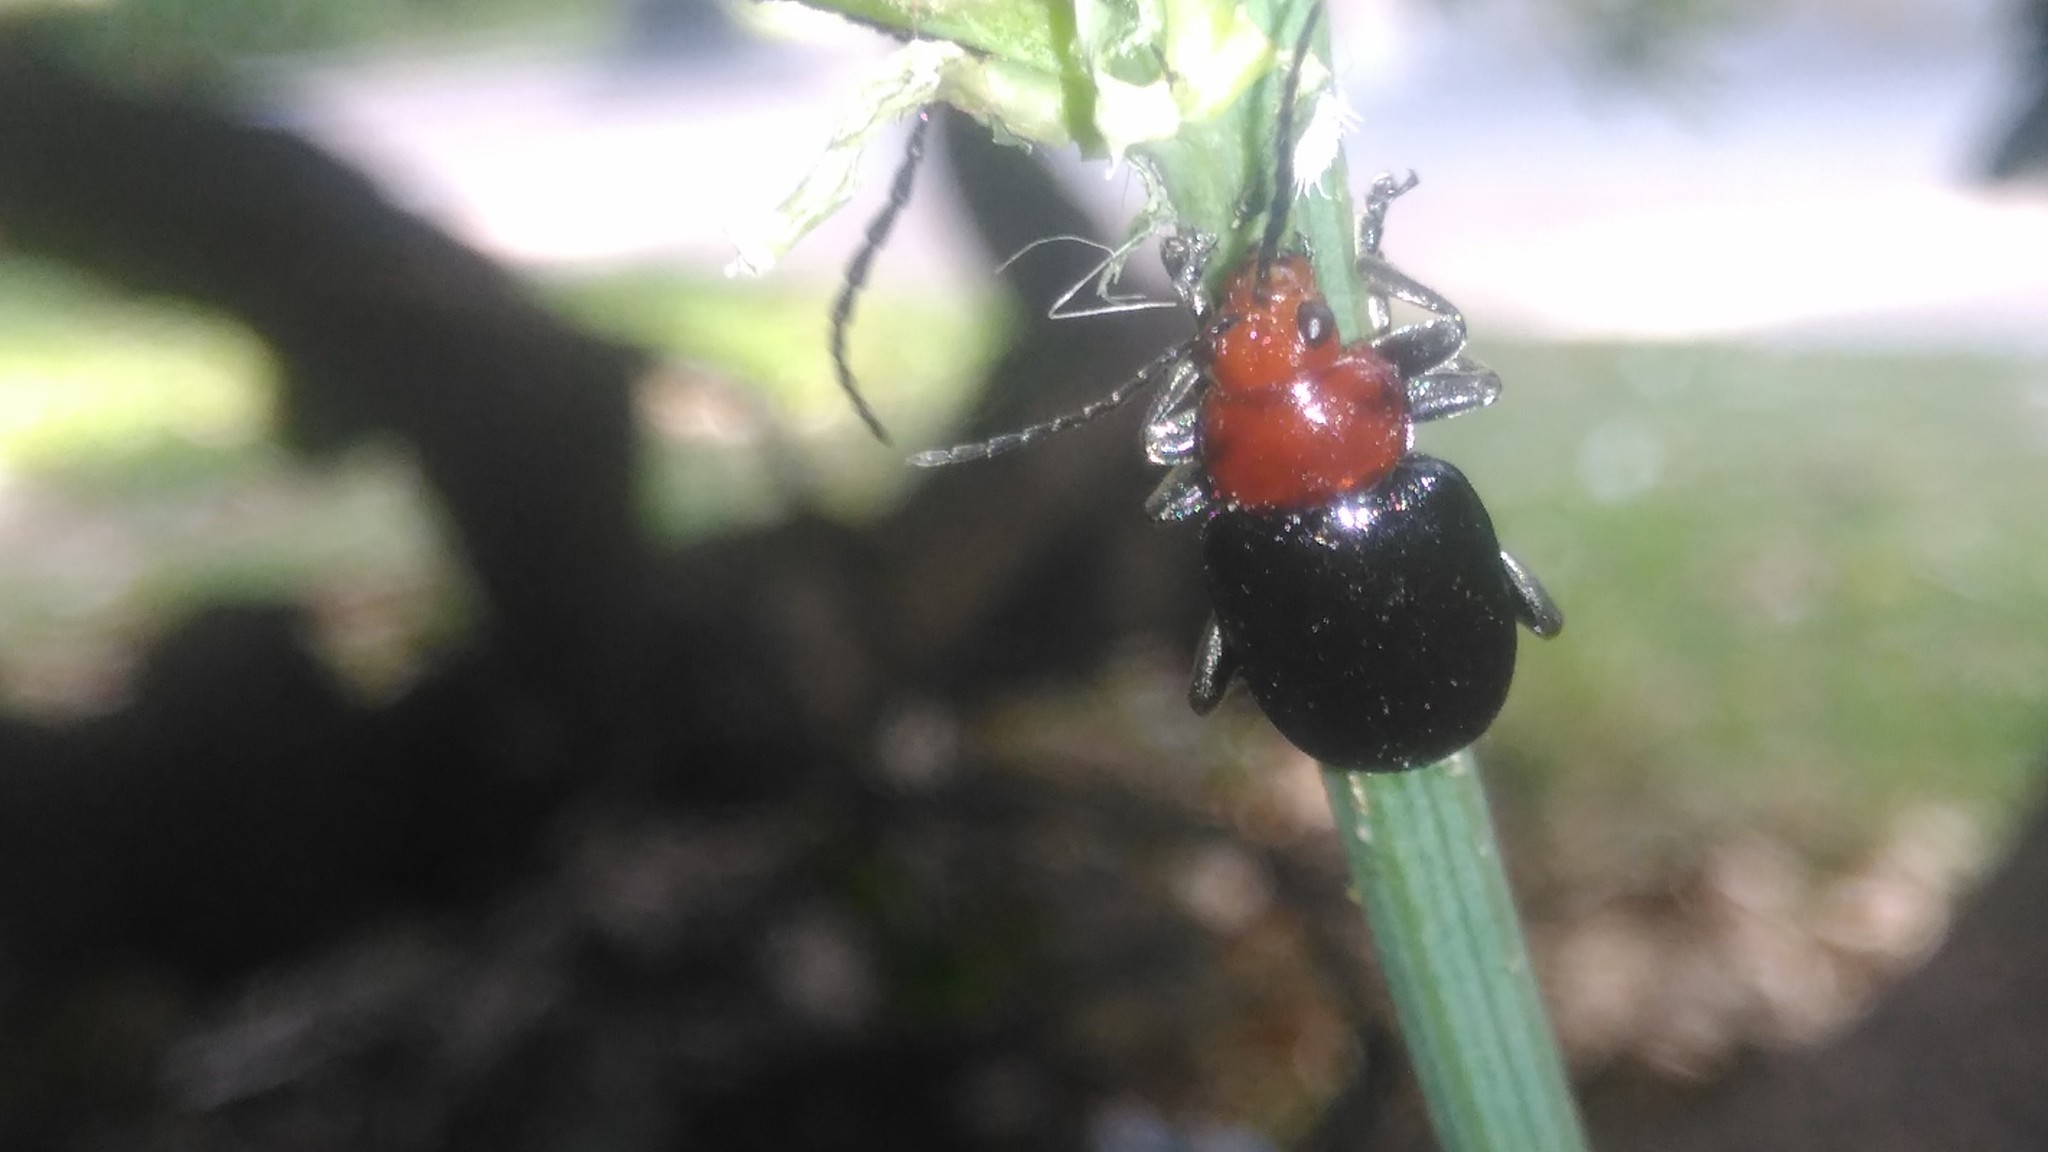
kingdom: Animalia
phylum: Arthropoda
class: Insecta
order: Coleoptera
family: Chrysomelidae
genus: Cacoscelis
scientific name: Cacoscelis
